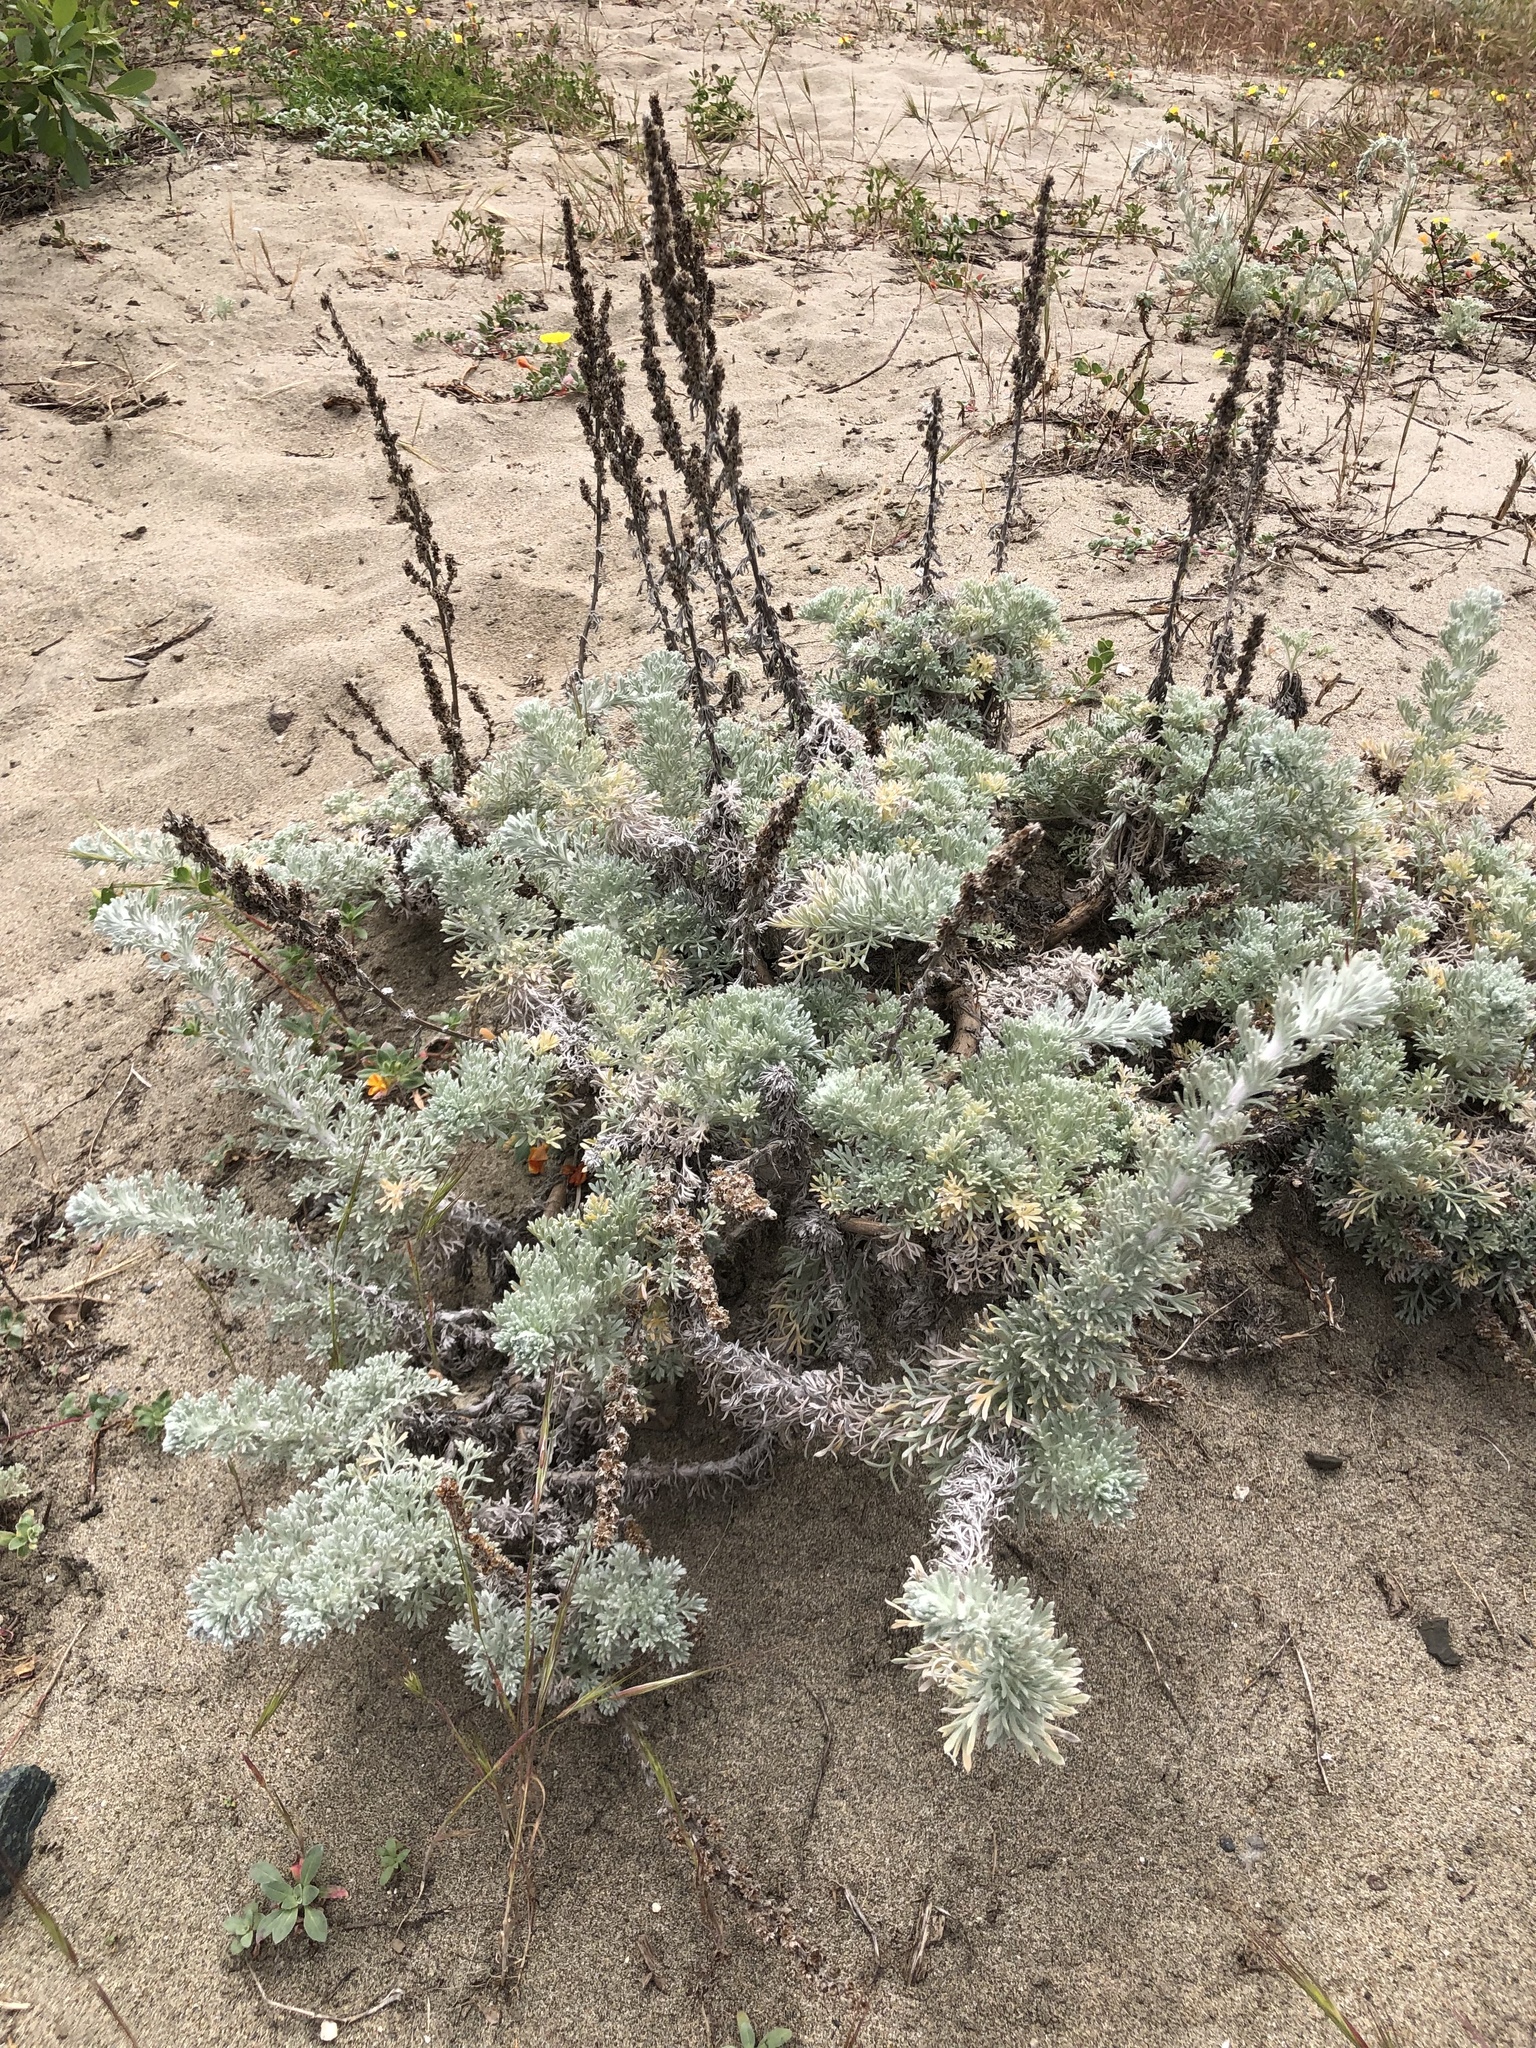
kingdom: Plantae
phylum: Tracheophyta
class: Magnoliopsida
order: Asterales
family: Asteraceae
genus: Artemisia
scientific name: Artemisia pycnocephala
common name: Coastal sagewort
